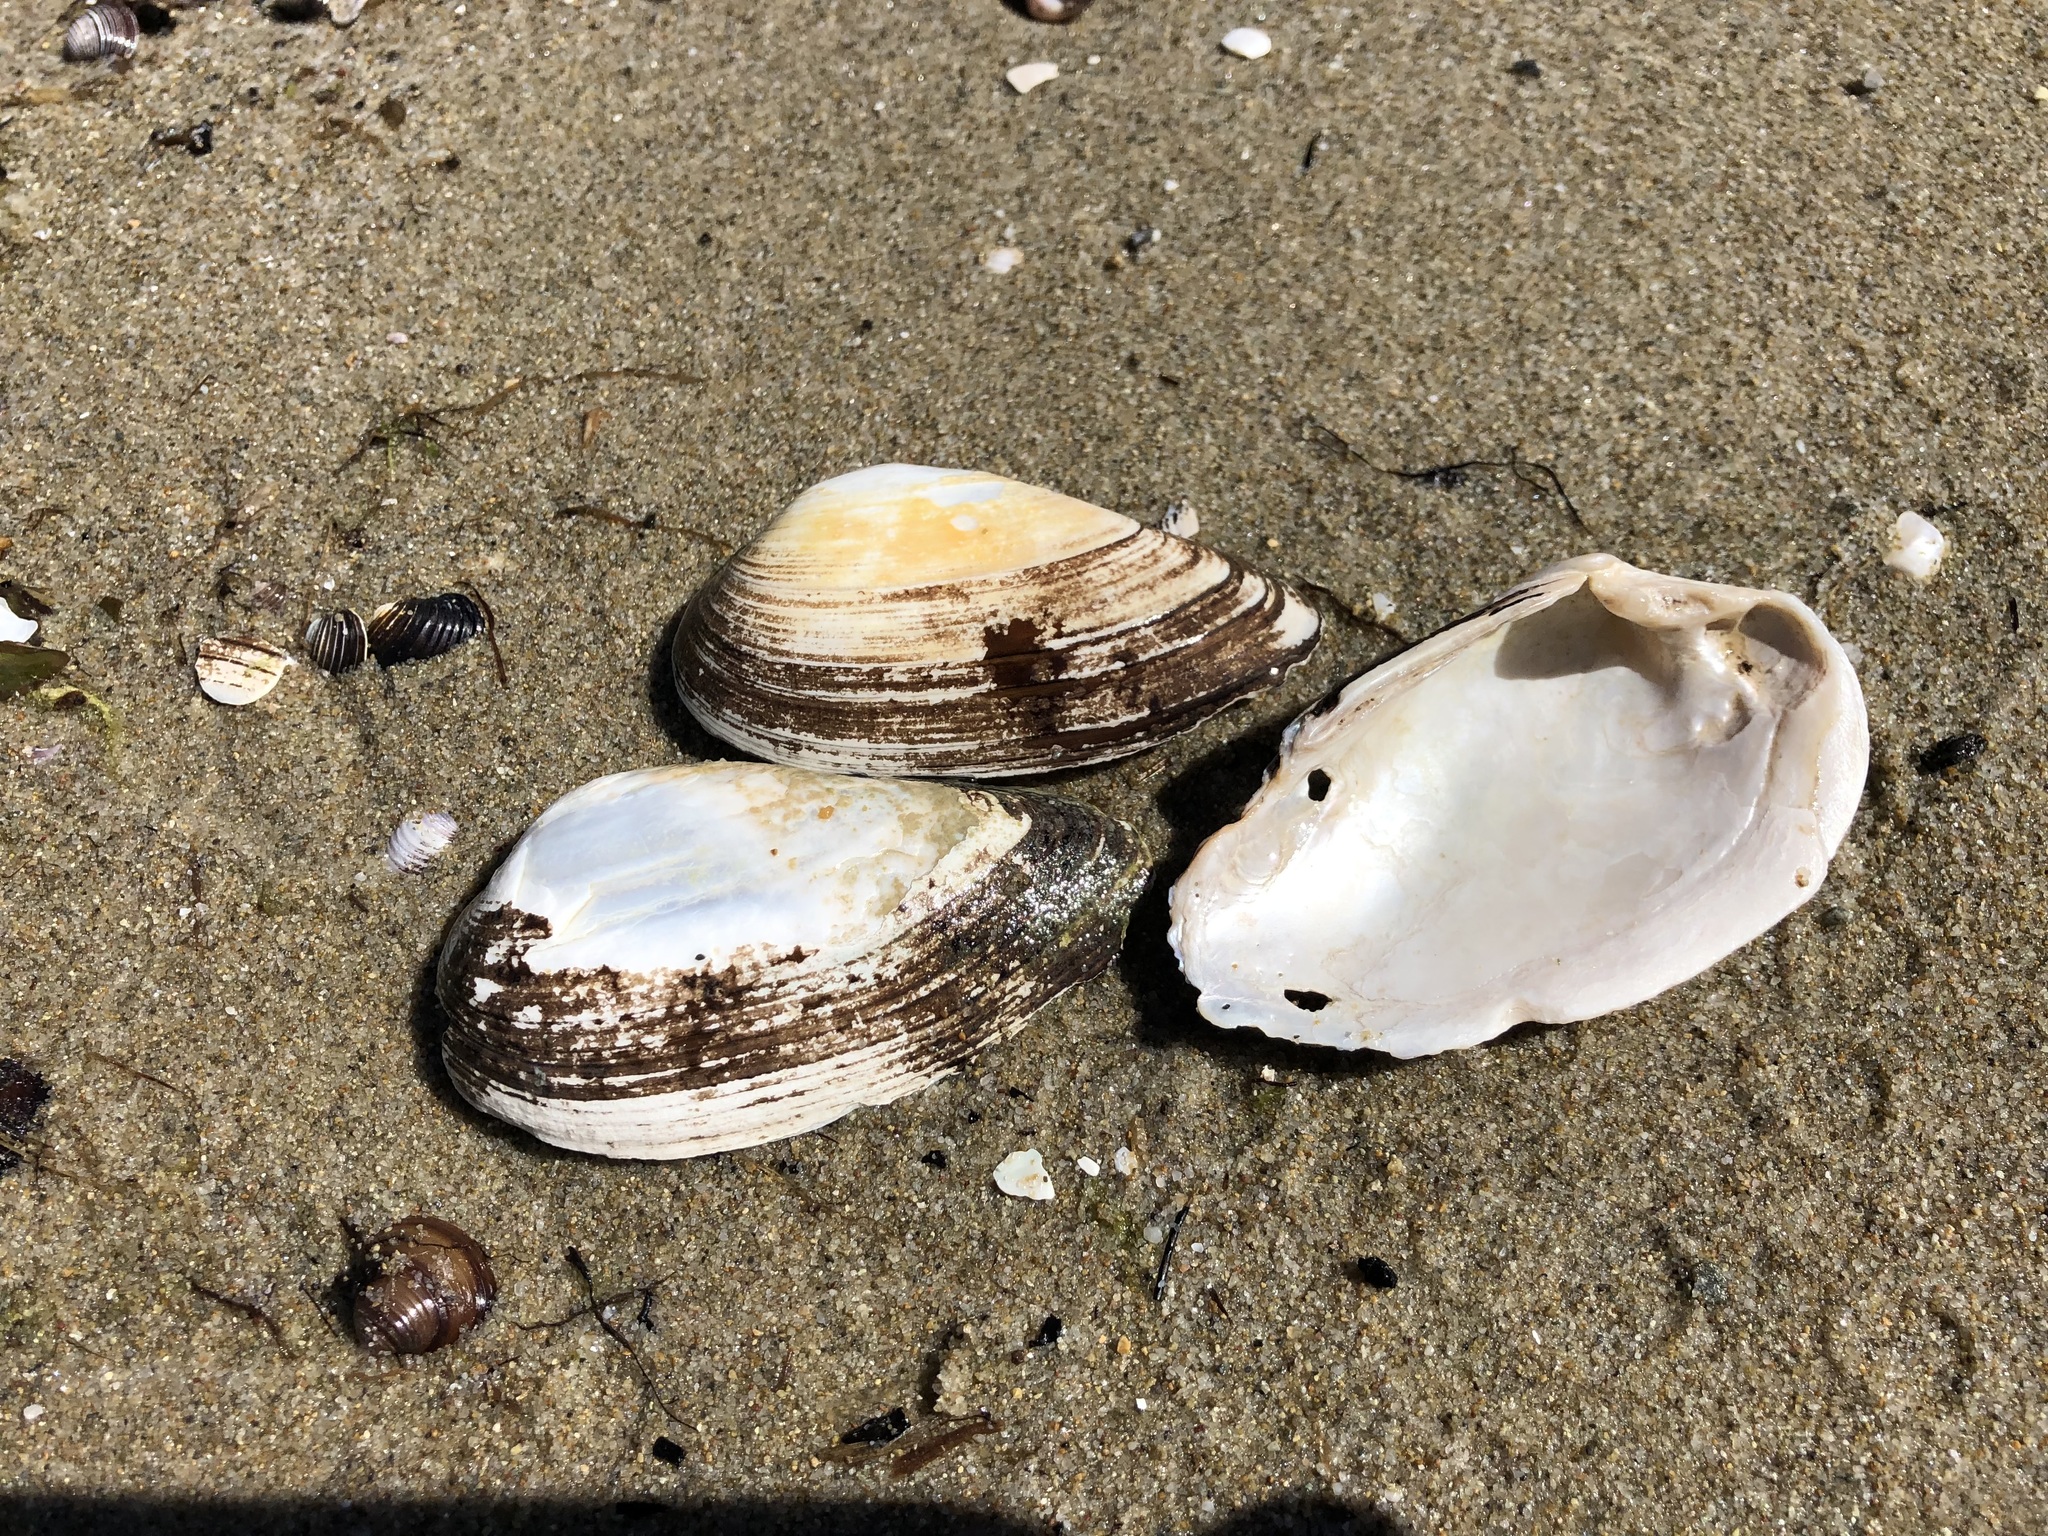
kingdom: Animalia
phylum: Mollusca
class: Bivalvia
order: Unionida
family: Unionidae
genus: Unio
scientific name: Unio tumidus
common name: Swollen river mussel
